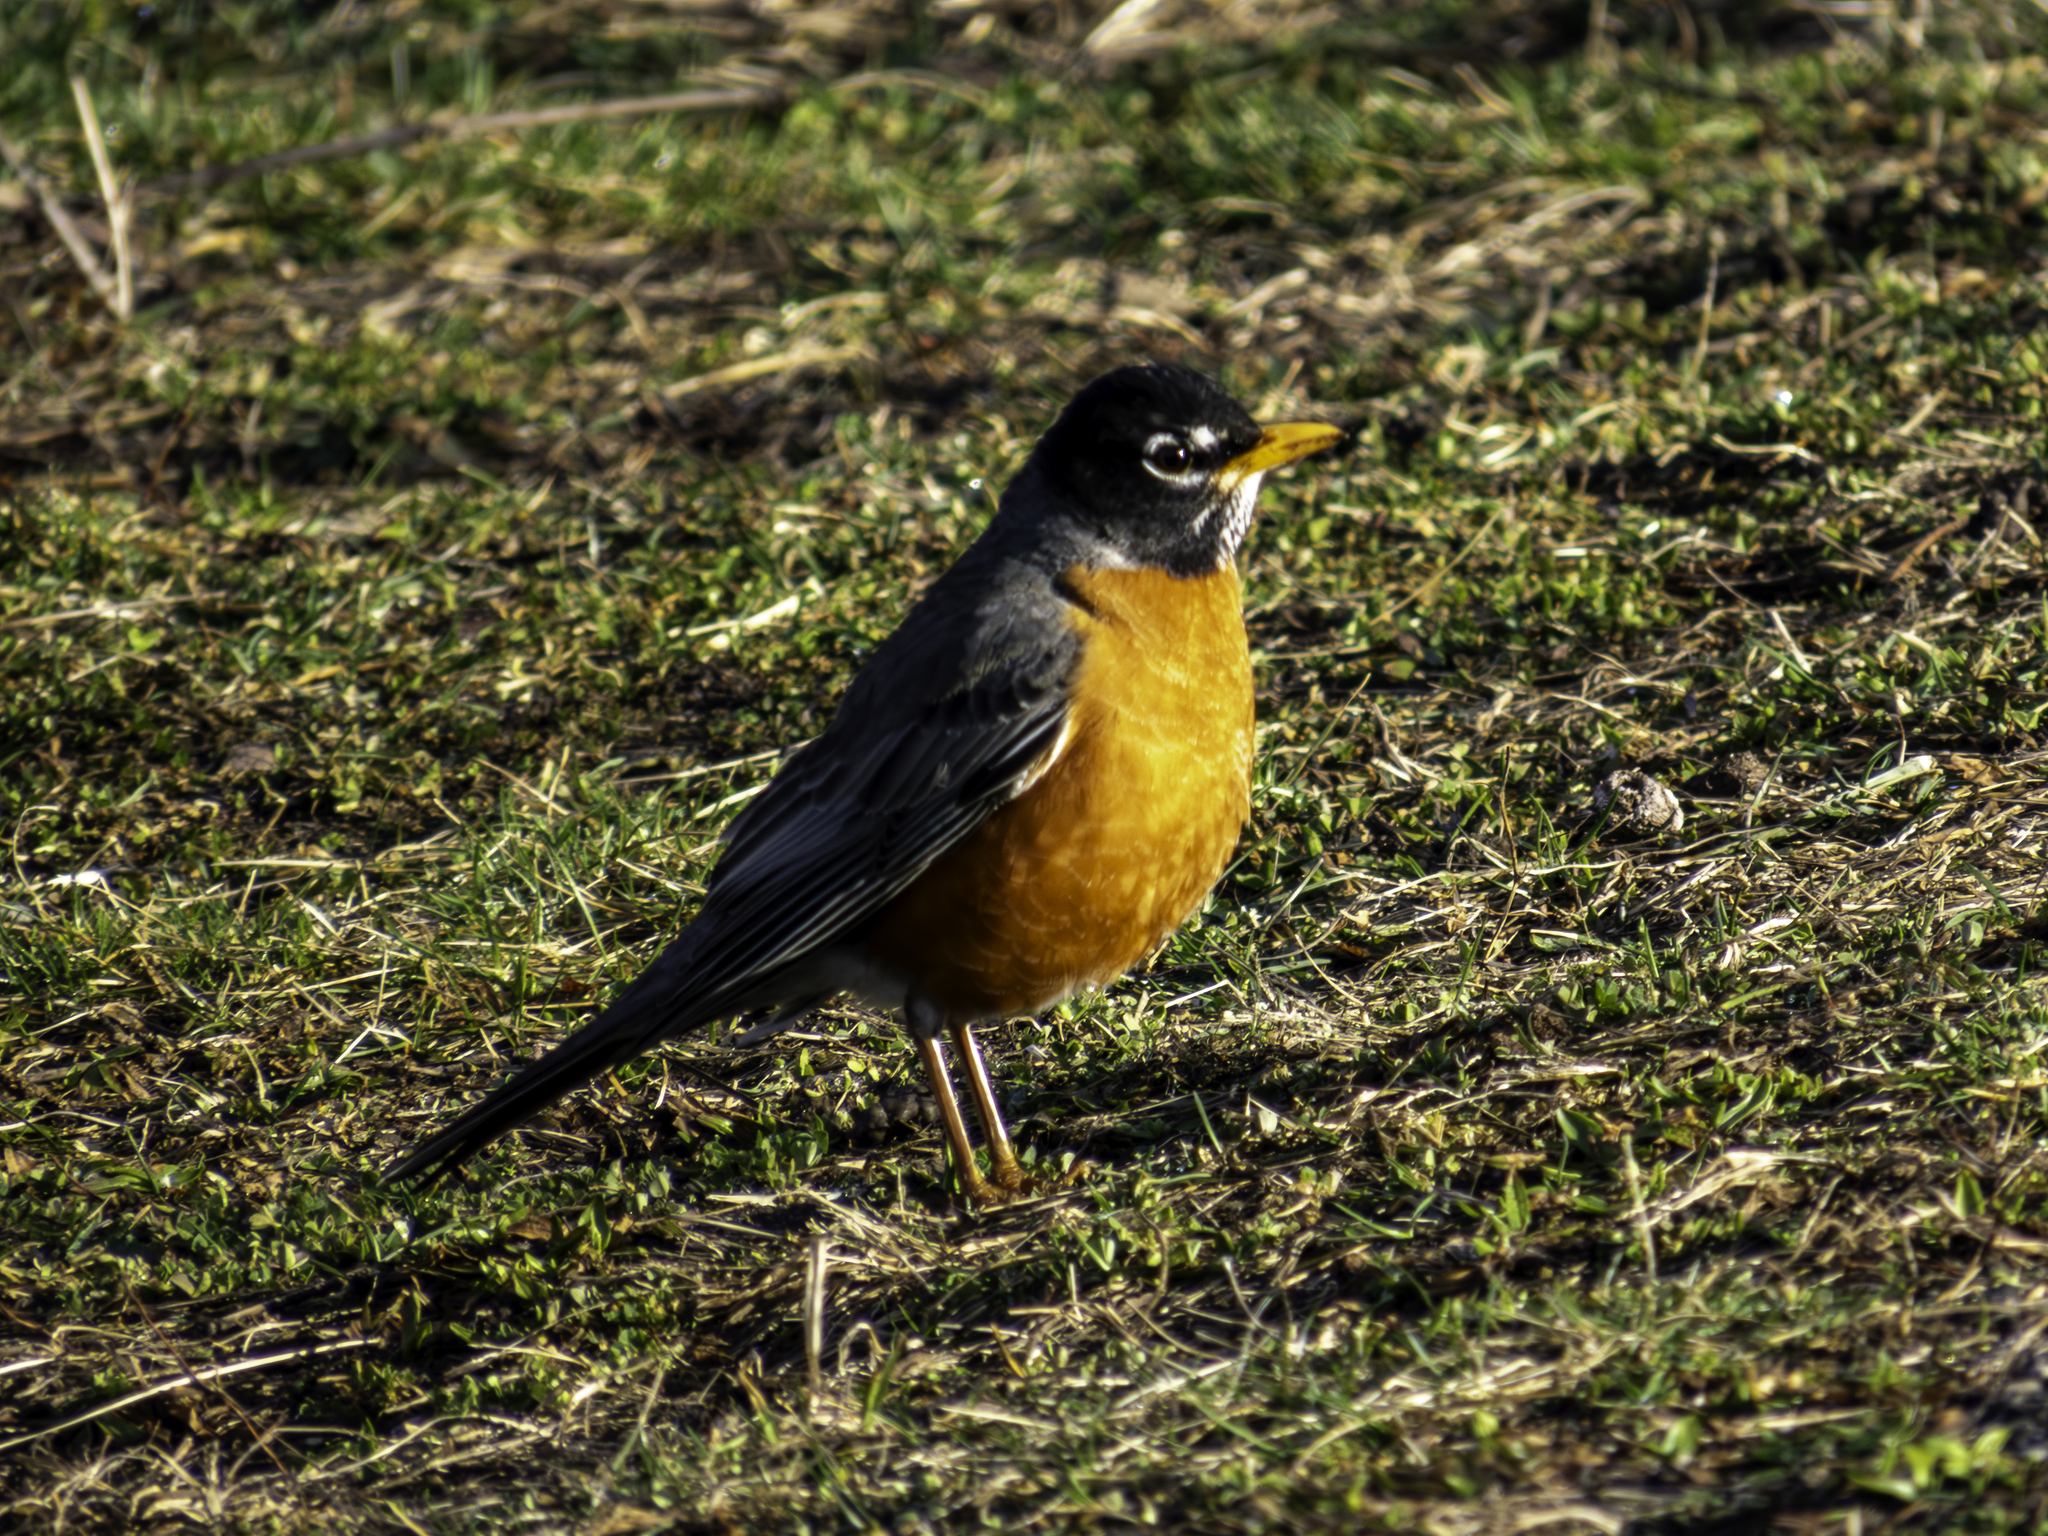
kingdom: Animalia
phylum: Chordata
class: Aves
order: Passeriformes
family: Turdidae
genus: Turdus
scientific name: Turdus migratorius
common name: American robin
